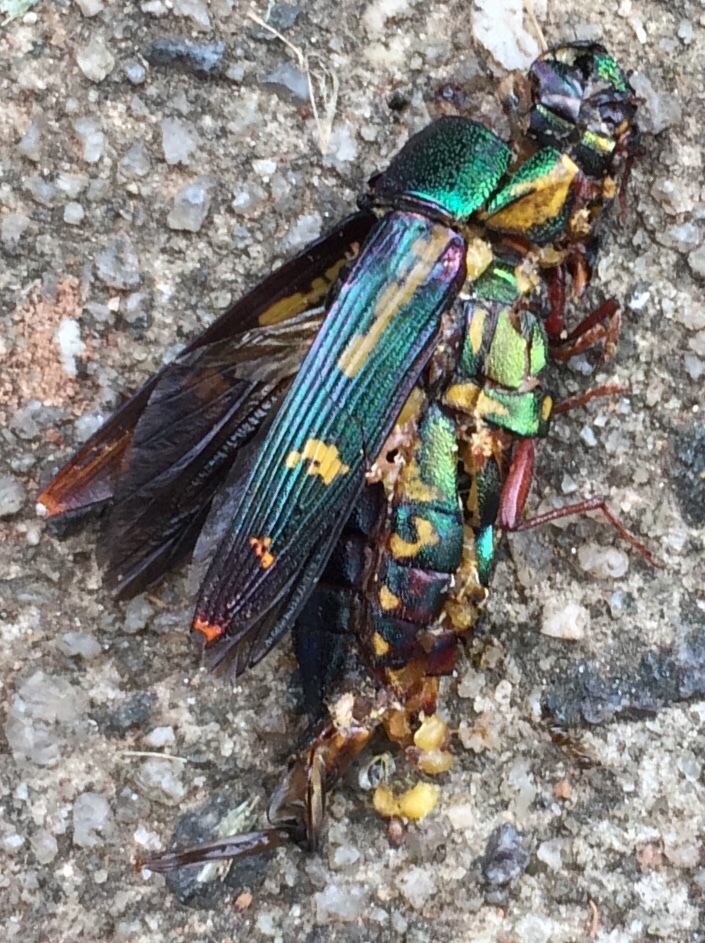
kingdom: Animalia
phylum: Arthropoda
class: Insecta
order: Coleoptera
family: Buprestidae
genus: Buprestis
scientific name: Buprestis rufipes
